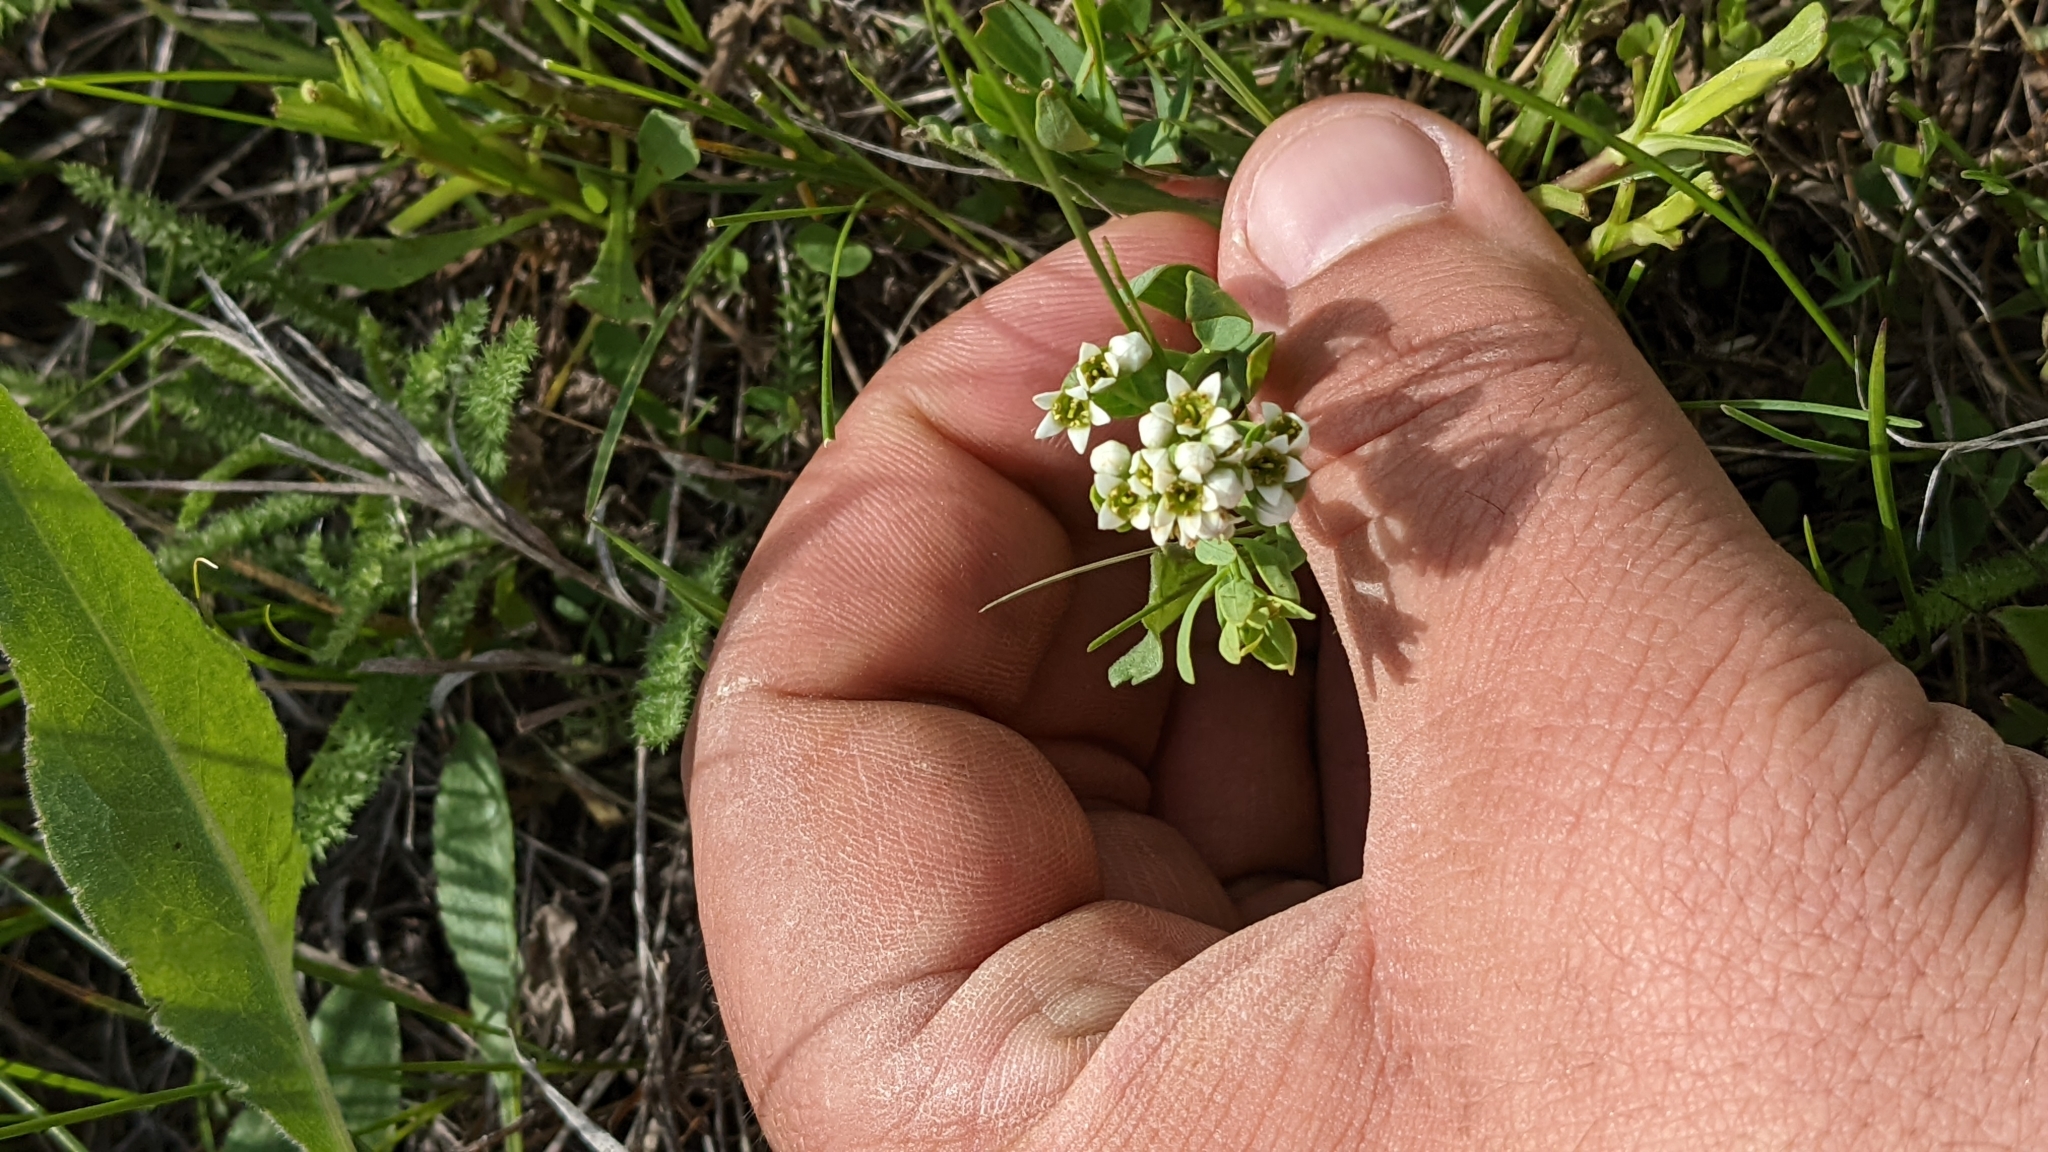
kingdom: Plantae
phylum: Tracheophyta
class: Magnoliopsida
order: Santalales
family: Comandraceae
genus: Comandra
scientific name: Comandra umbellata
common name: Bastard toadflax
